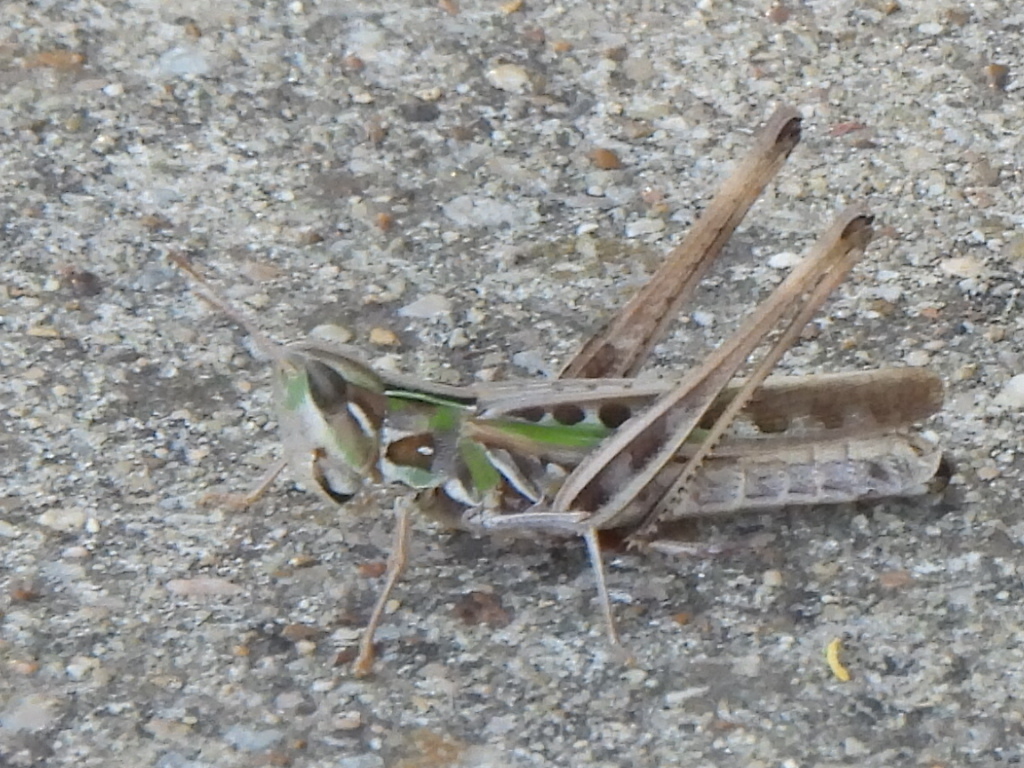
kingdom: Animalia
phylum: Arthropoda
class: Insecta
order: Orthoptera
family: Acrididae
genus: Syrbula
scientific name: Syrbula admirabilis
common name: Handsome grasshopper
